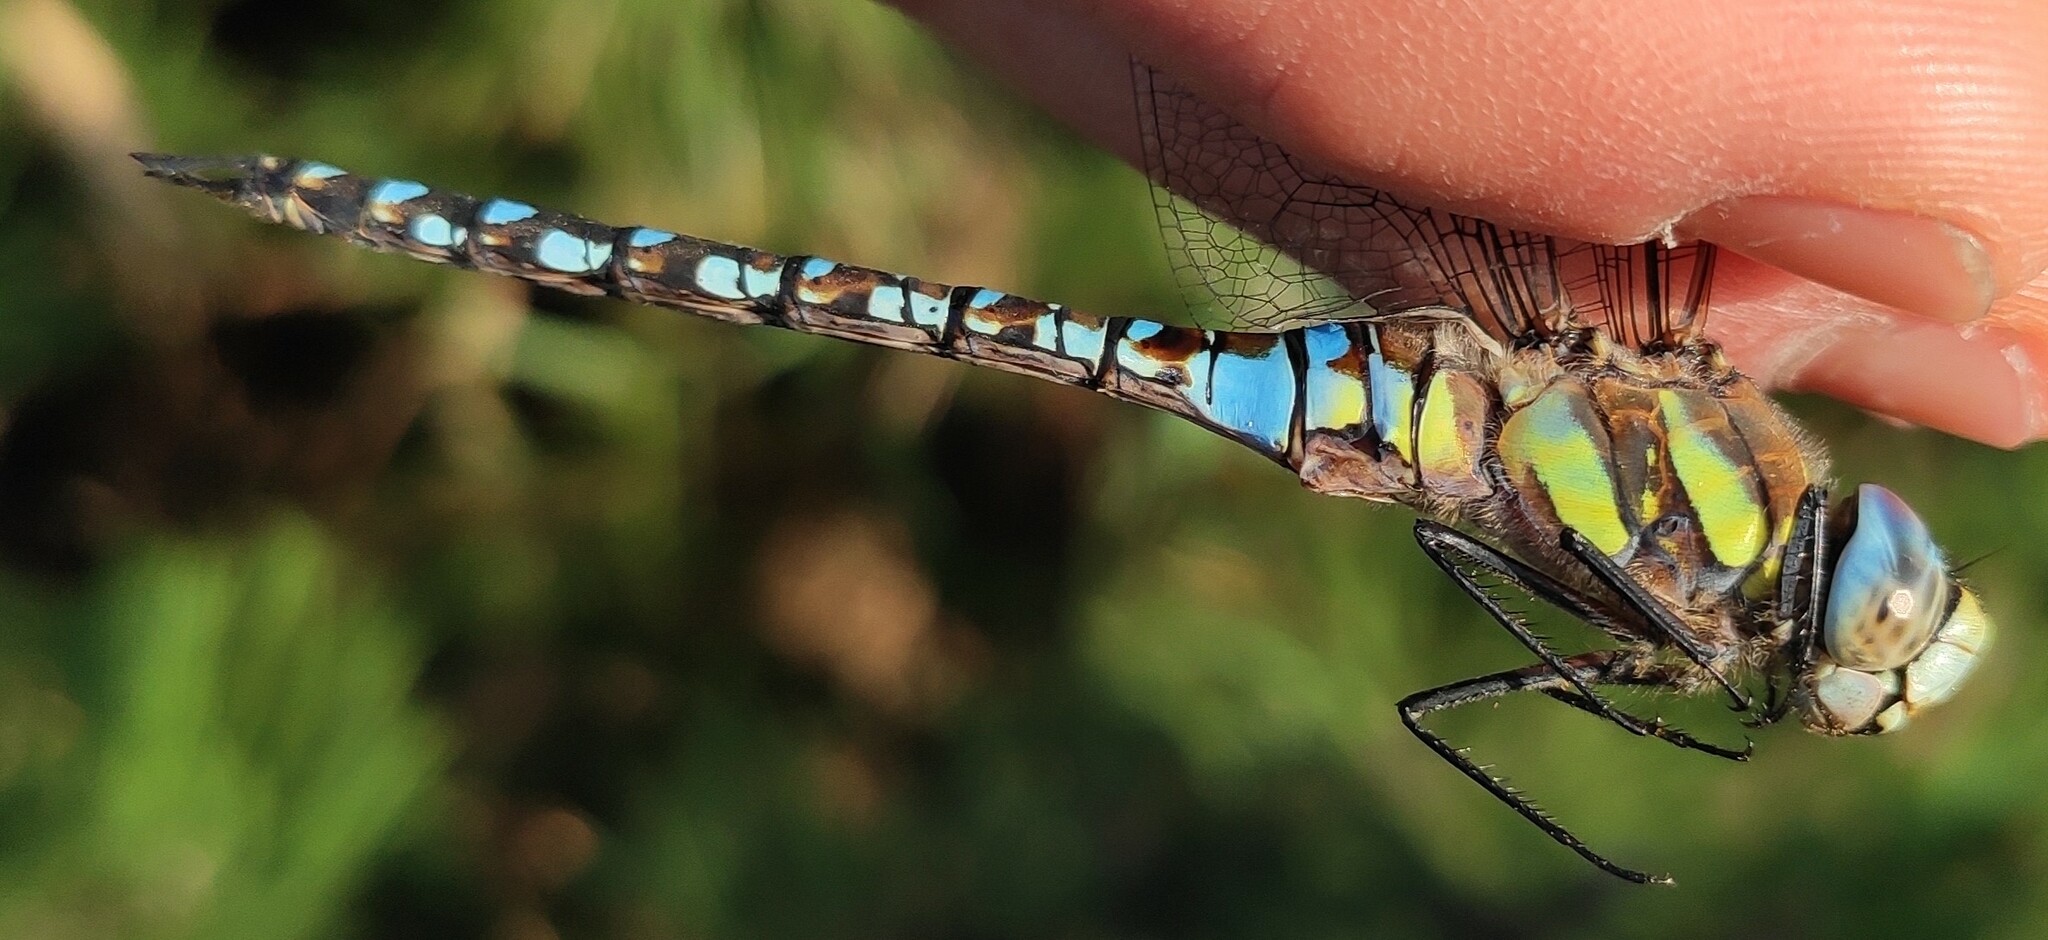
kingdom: Animalia
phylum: Arthropoda
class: Insecta
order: Odonata
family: Aeshnidae
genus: Aeshna
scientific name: Aeshna mixta
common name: Migrant hawker
